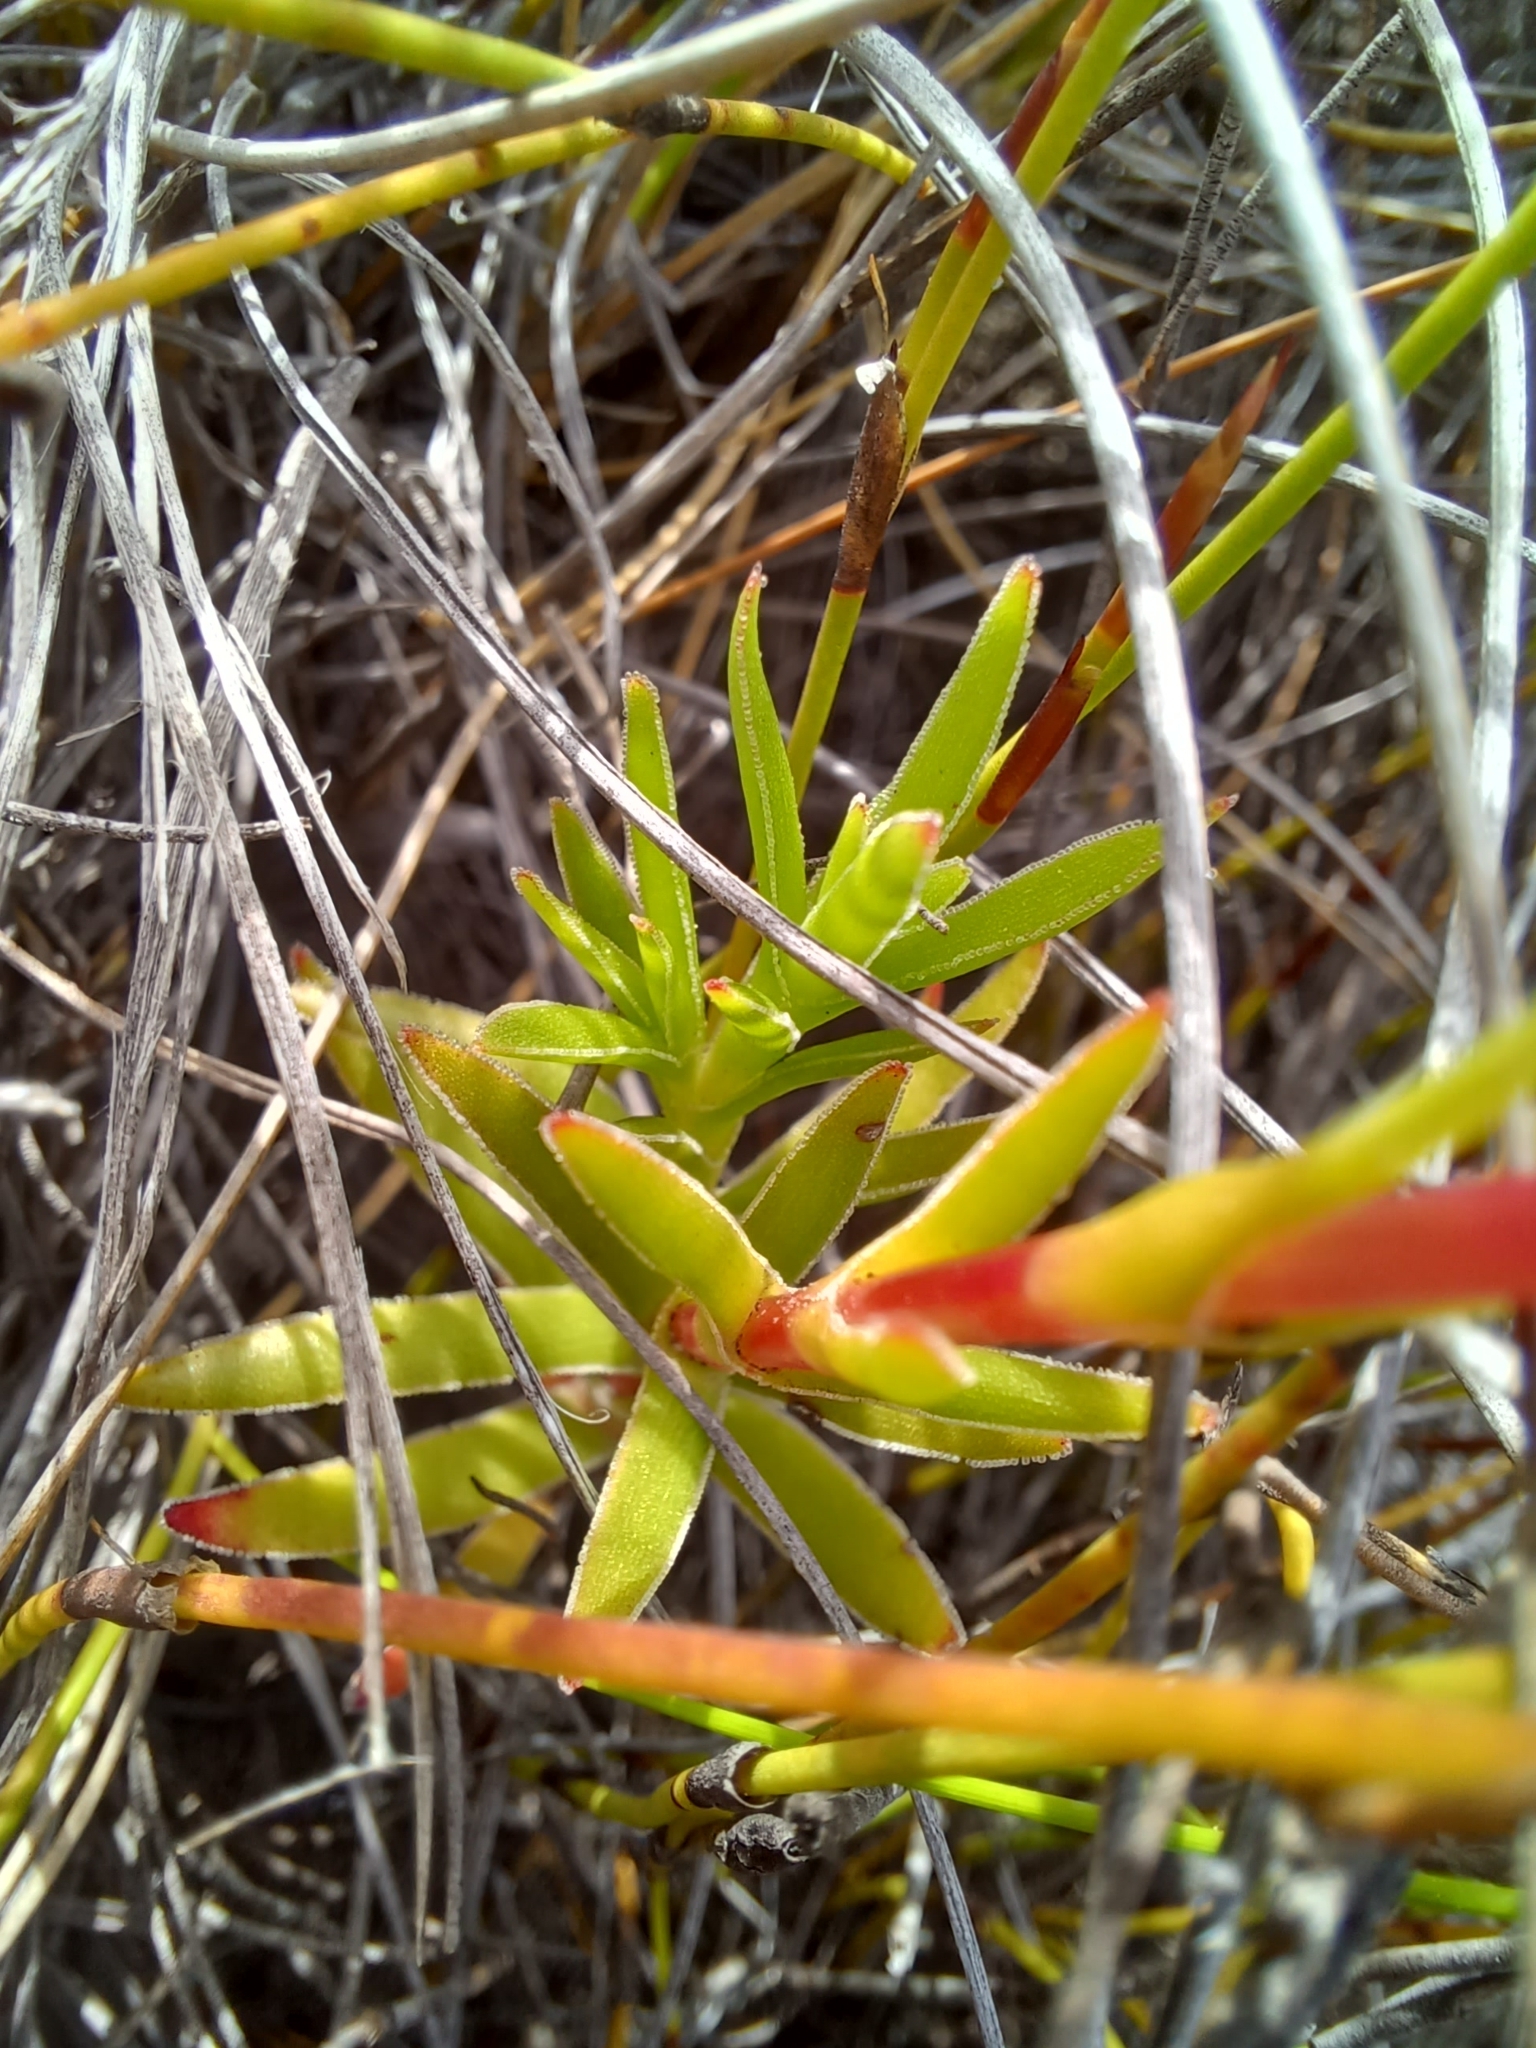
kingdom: Plantae
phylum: Tracheophyta
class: Magnoliopsida
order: Saxifragales
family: Crassulaceae
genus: Crassula
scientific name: Crassula fascicularis
